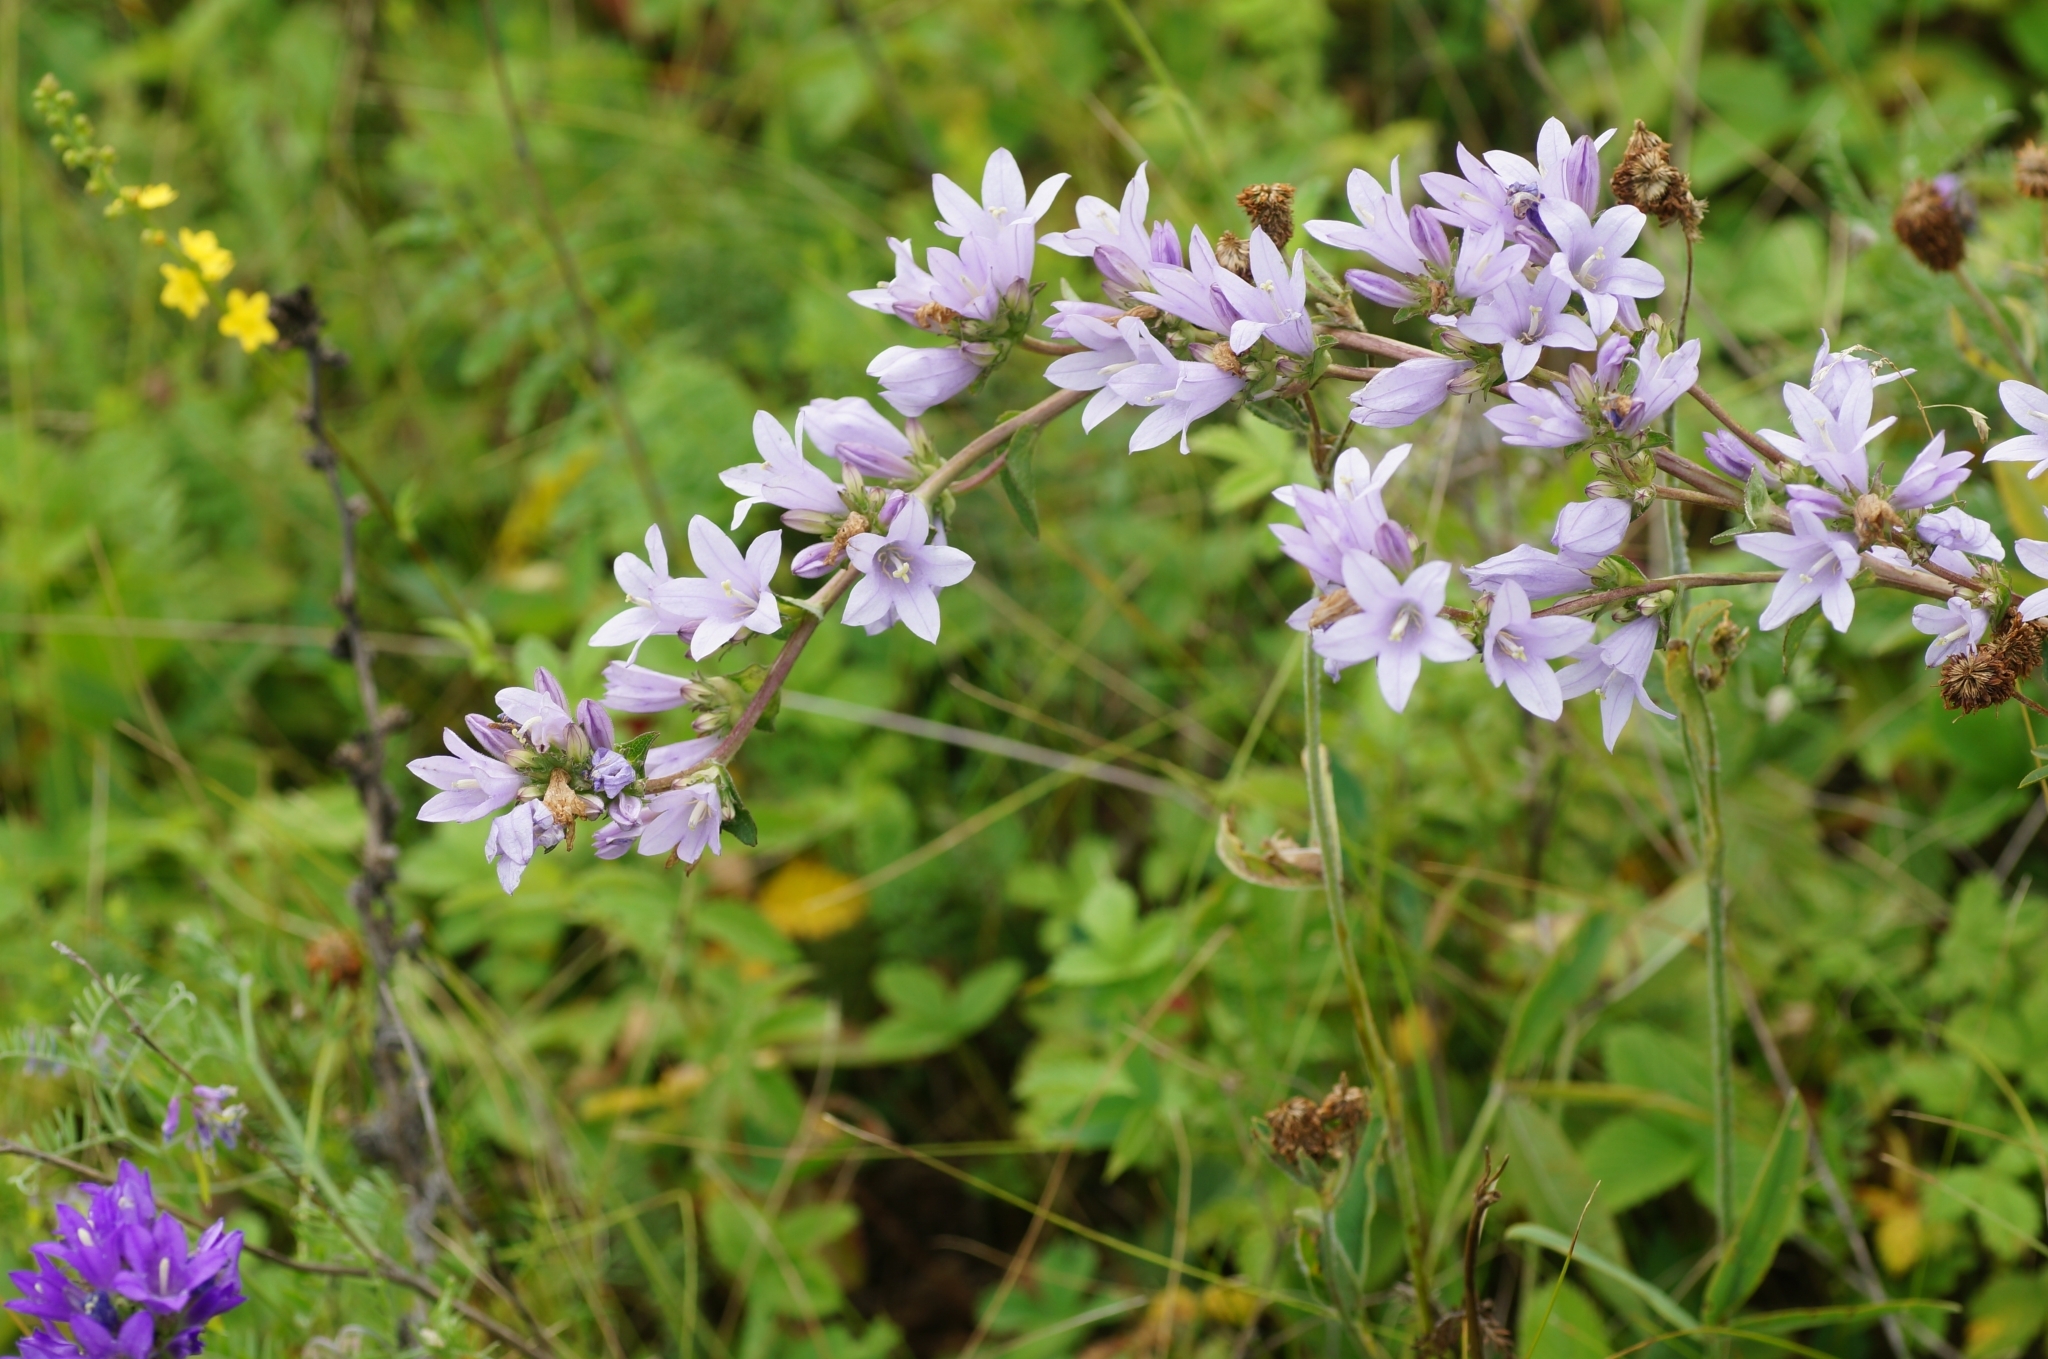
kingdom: Plantae
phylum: Tracheophyta
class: Magnoliopsida
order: Asterales
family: Campanulaceae
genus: Campanula
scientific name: Campanula bononiensis
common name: Pale bellflower
